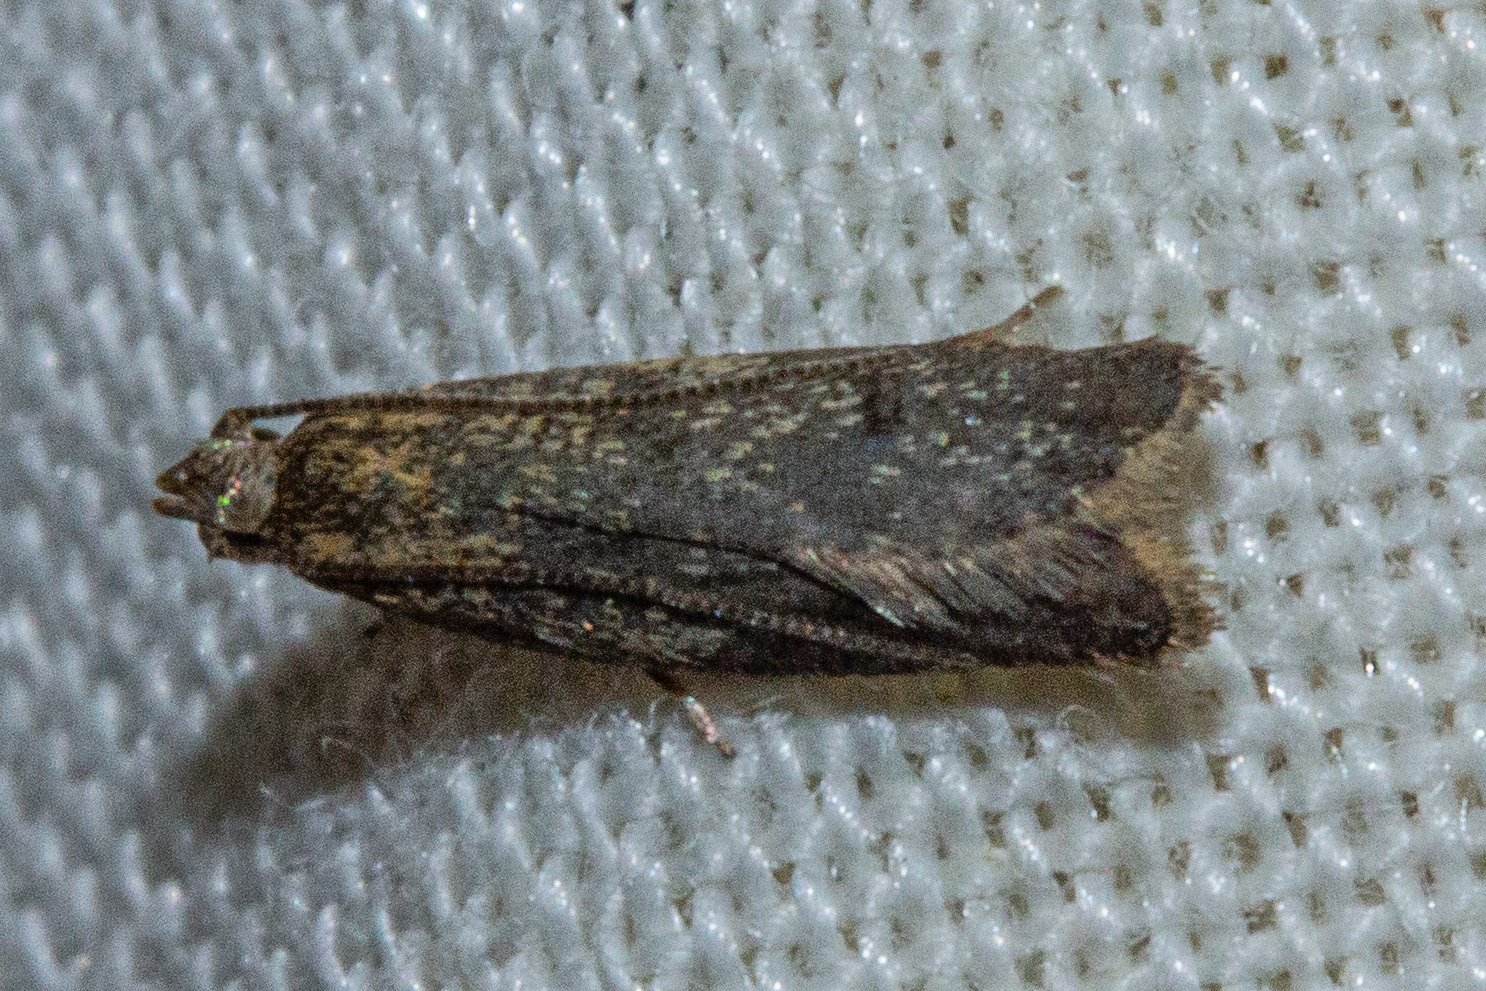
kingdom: Animalia
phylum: Arthropoda
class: Insecta
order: Lepidoptera
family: Oecophoridae
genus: Gymnobathra
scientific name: Gymnobathra tholodella
